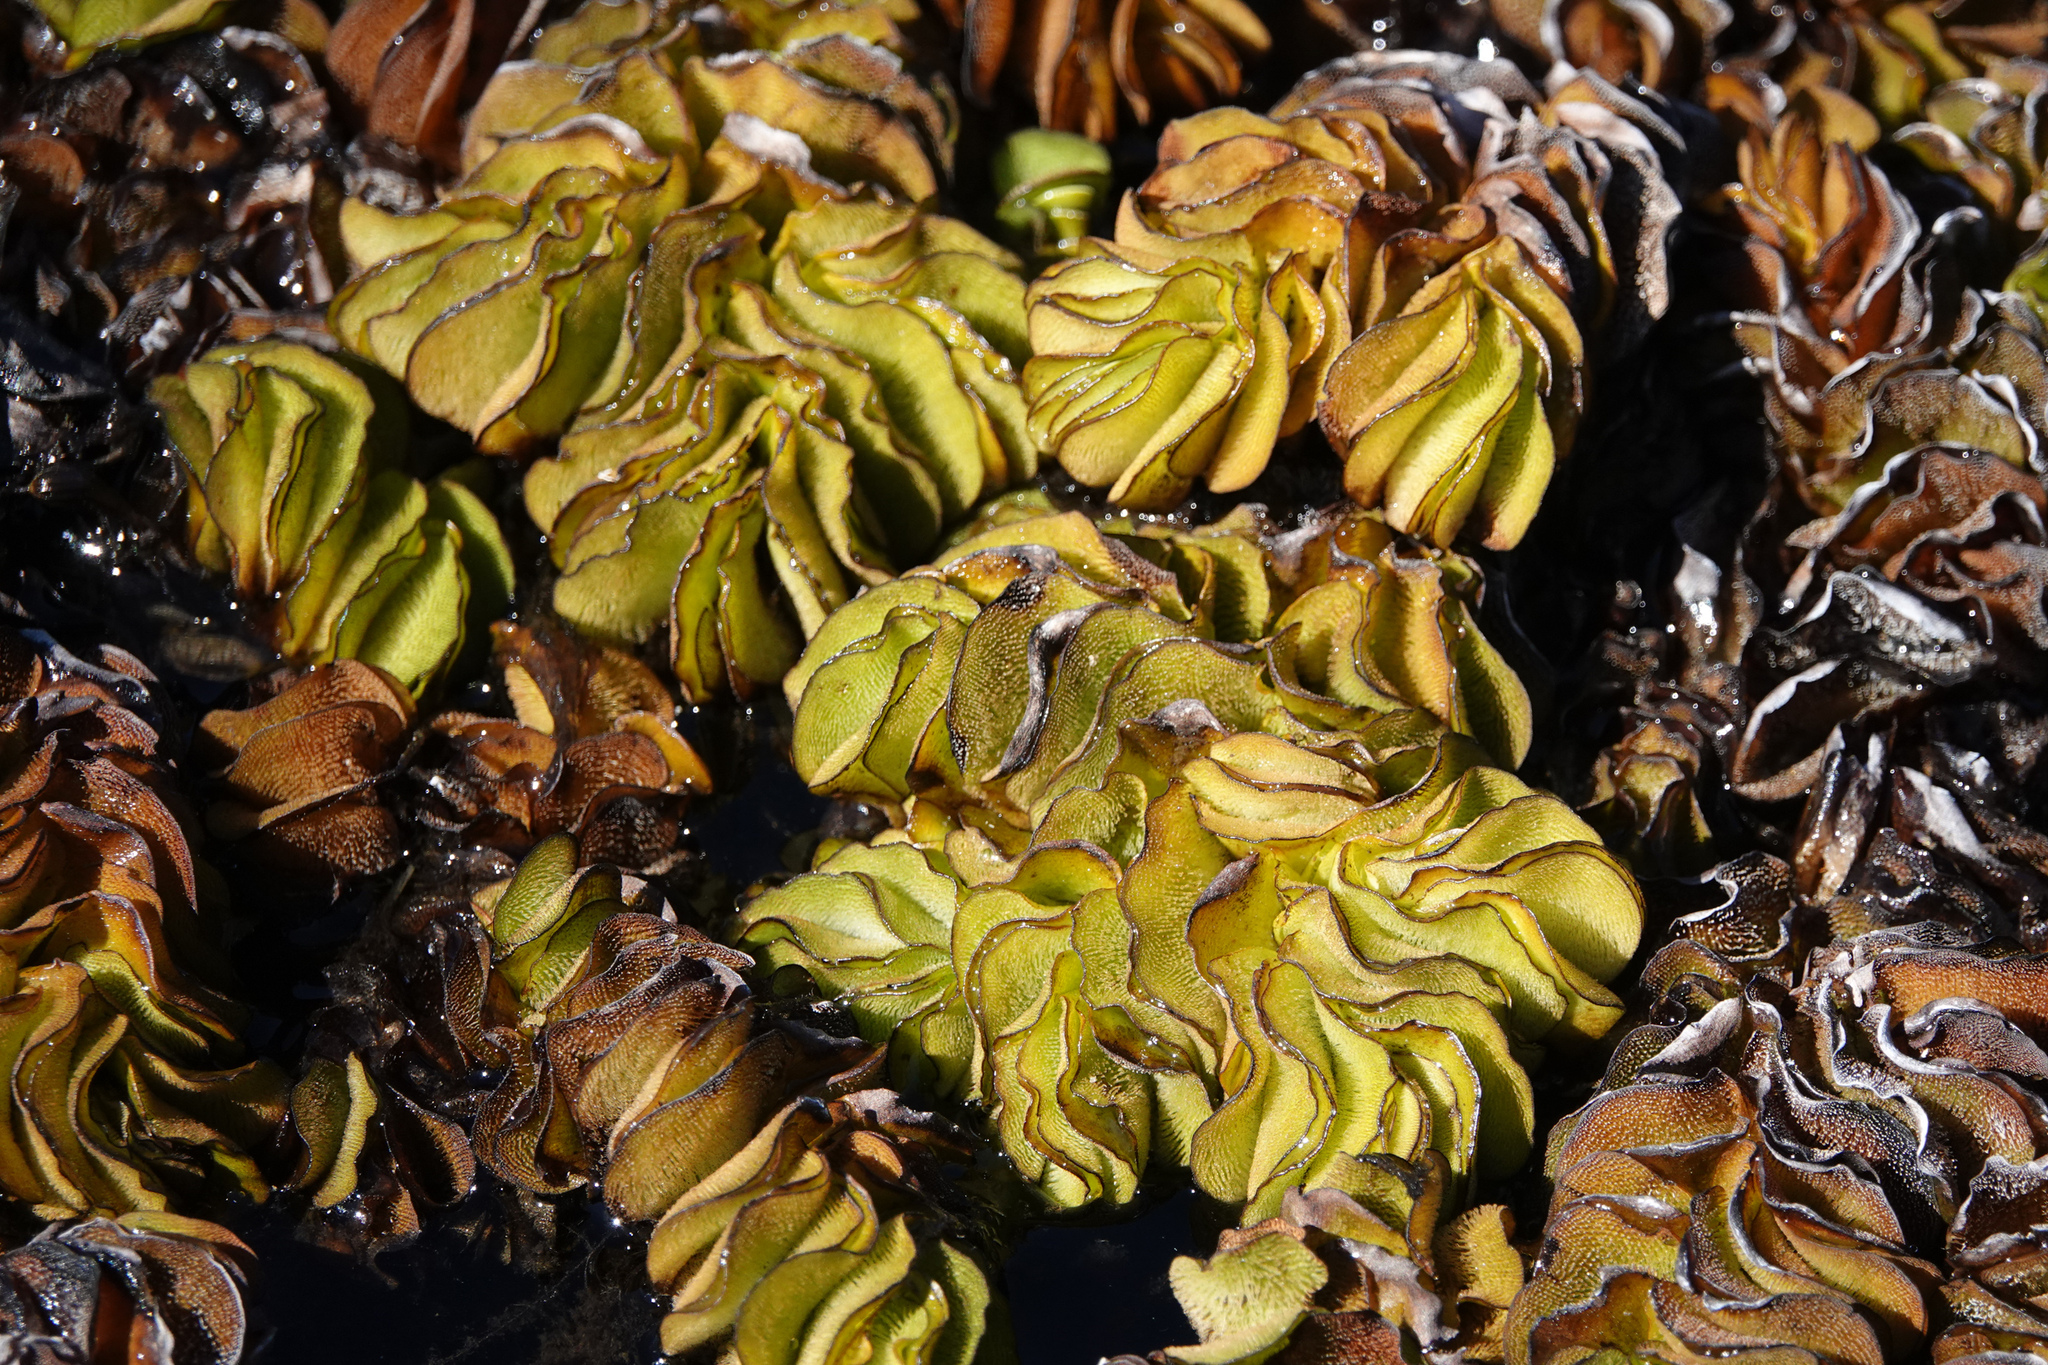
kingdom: Plantae
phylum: Tracheophyta
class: Polypodiopsida
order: Salviniales
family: Salviniaceae
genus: Salvinia
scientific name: Salvinia molesta
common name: Kariba weed
